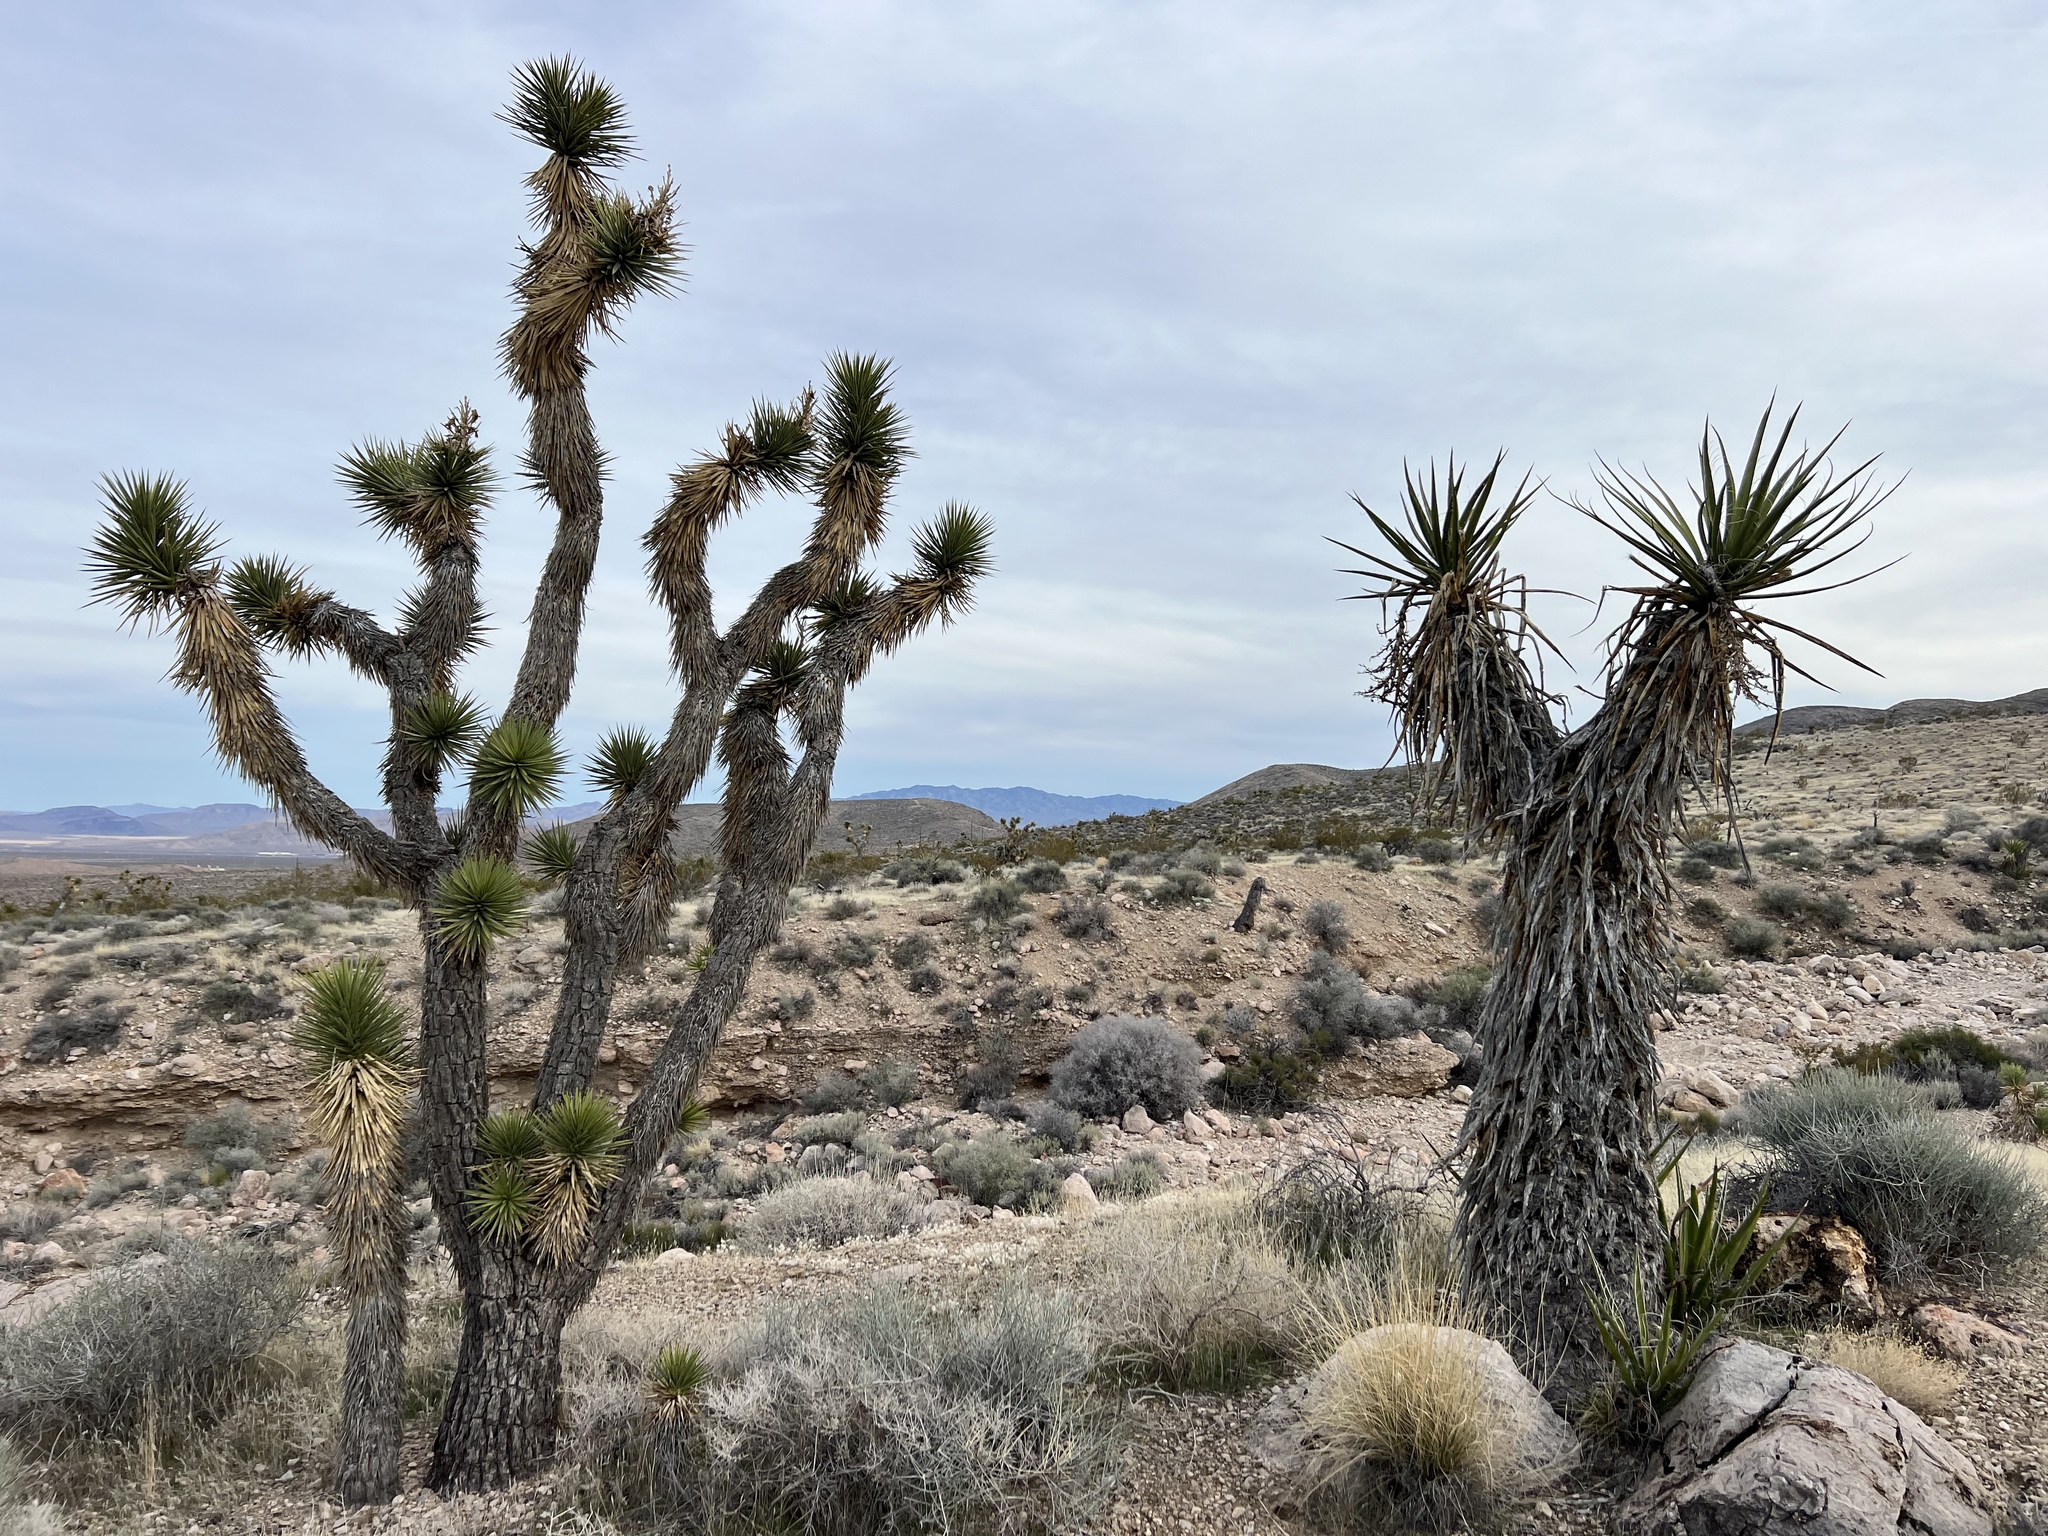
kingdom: Plantae
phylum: Tracheophyta
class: Liliopsida
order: Asparagales
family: Asparagaceae
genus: Yucca
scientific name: Yucca schidigera
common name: Mojave yucca
